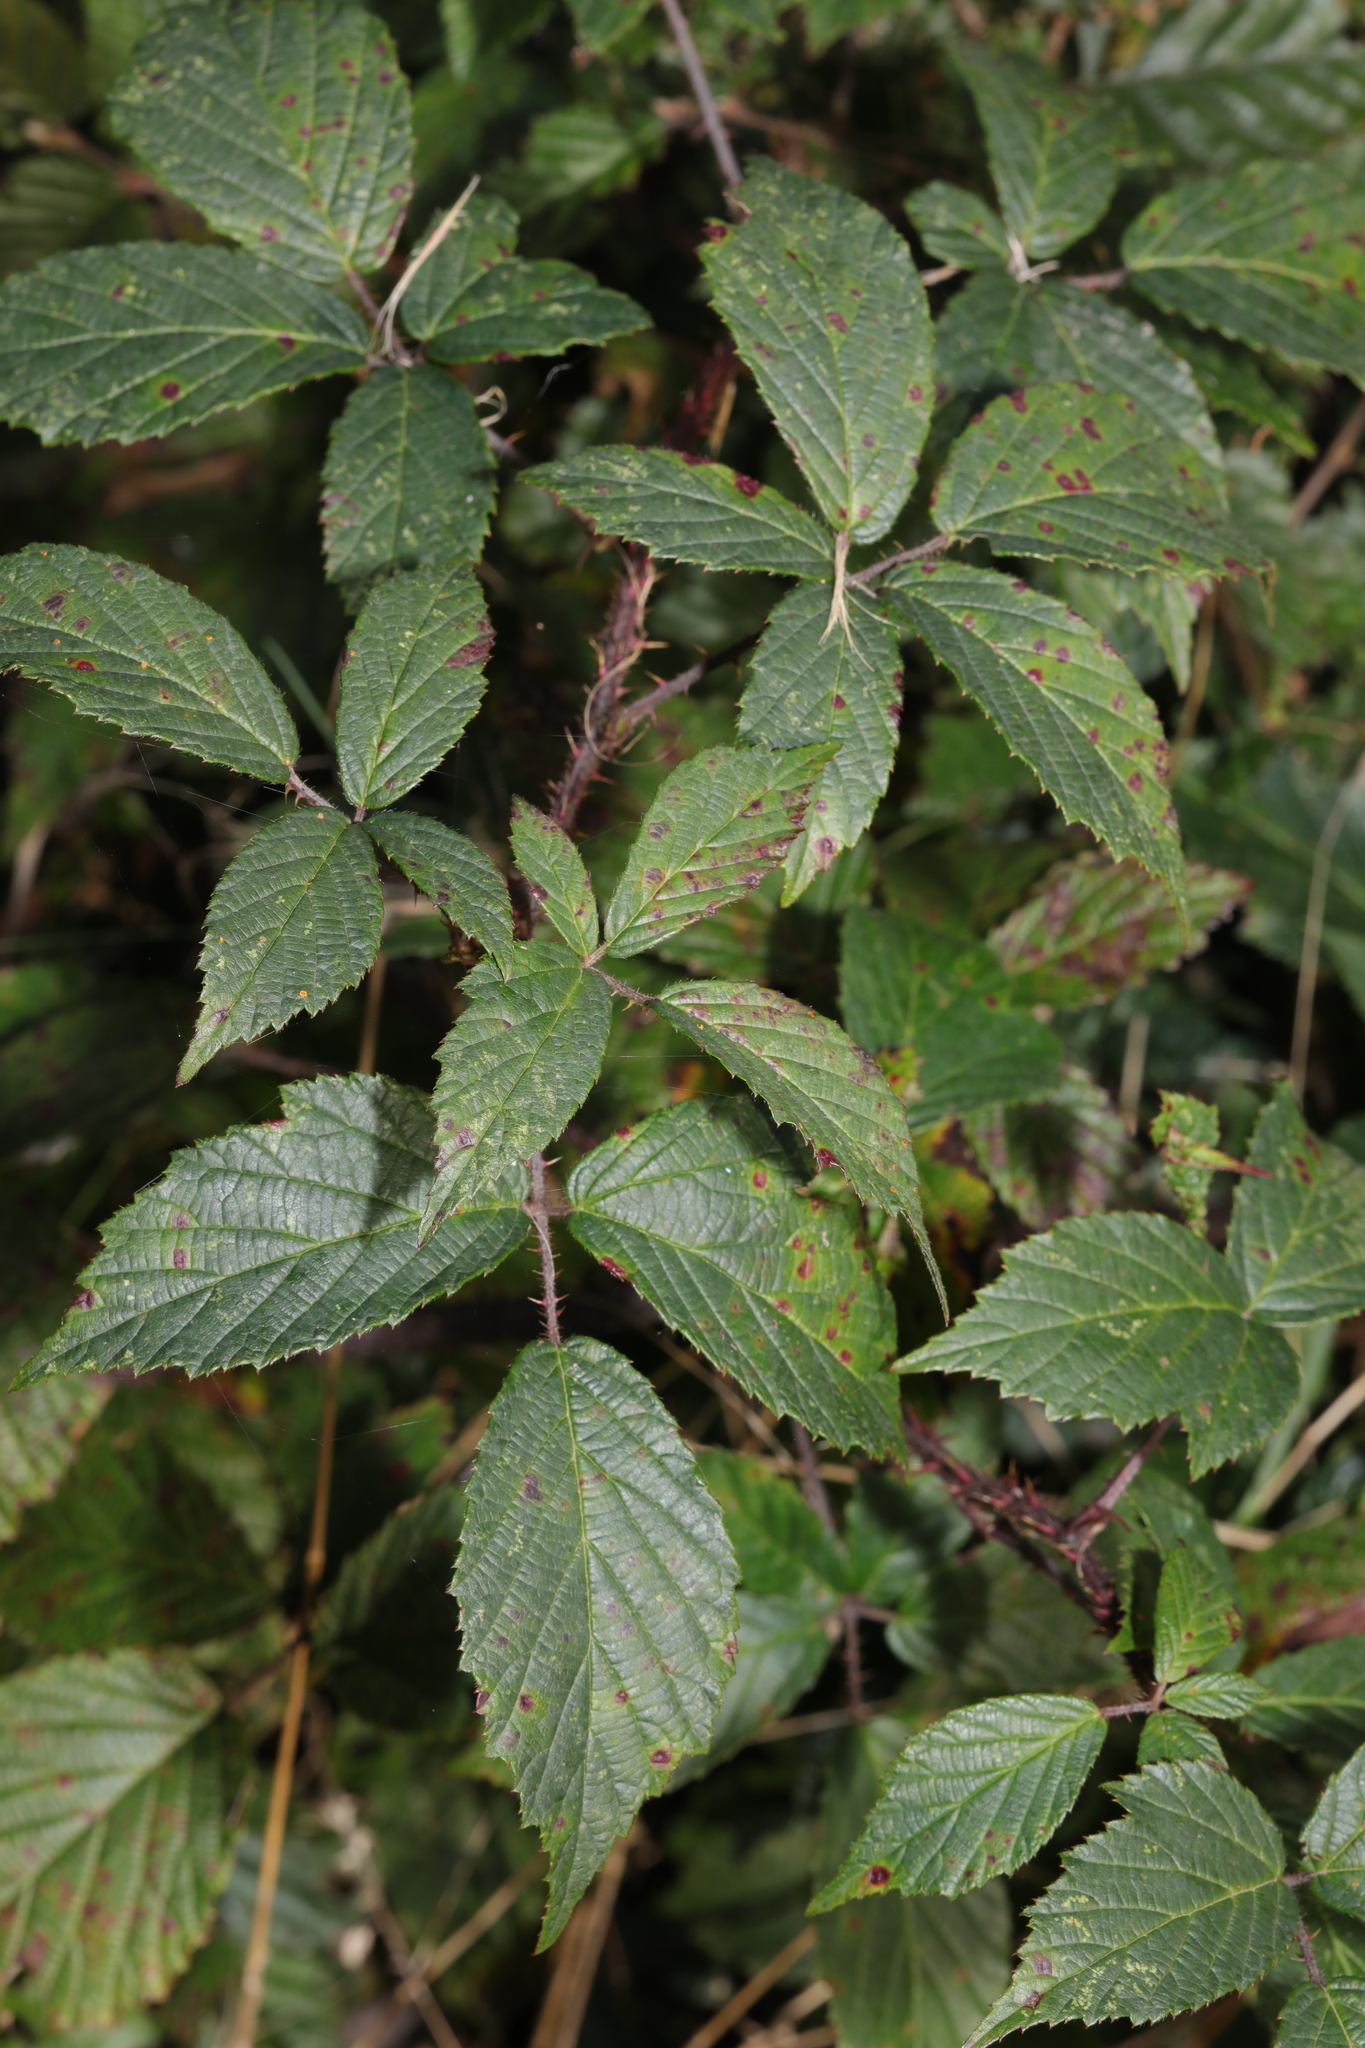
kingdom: Plantae
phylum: Tracheophyta
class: Magnoliopsida
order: Rosales
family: Rosaceae
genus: Rubus
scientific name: Rubus hylocharis
